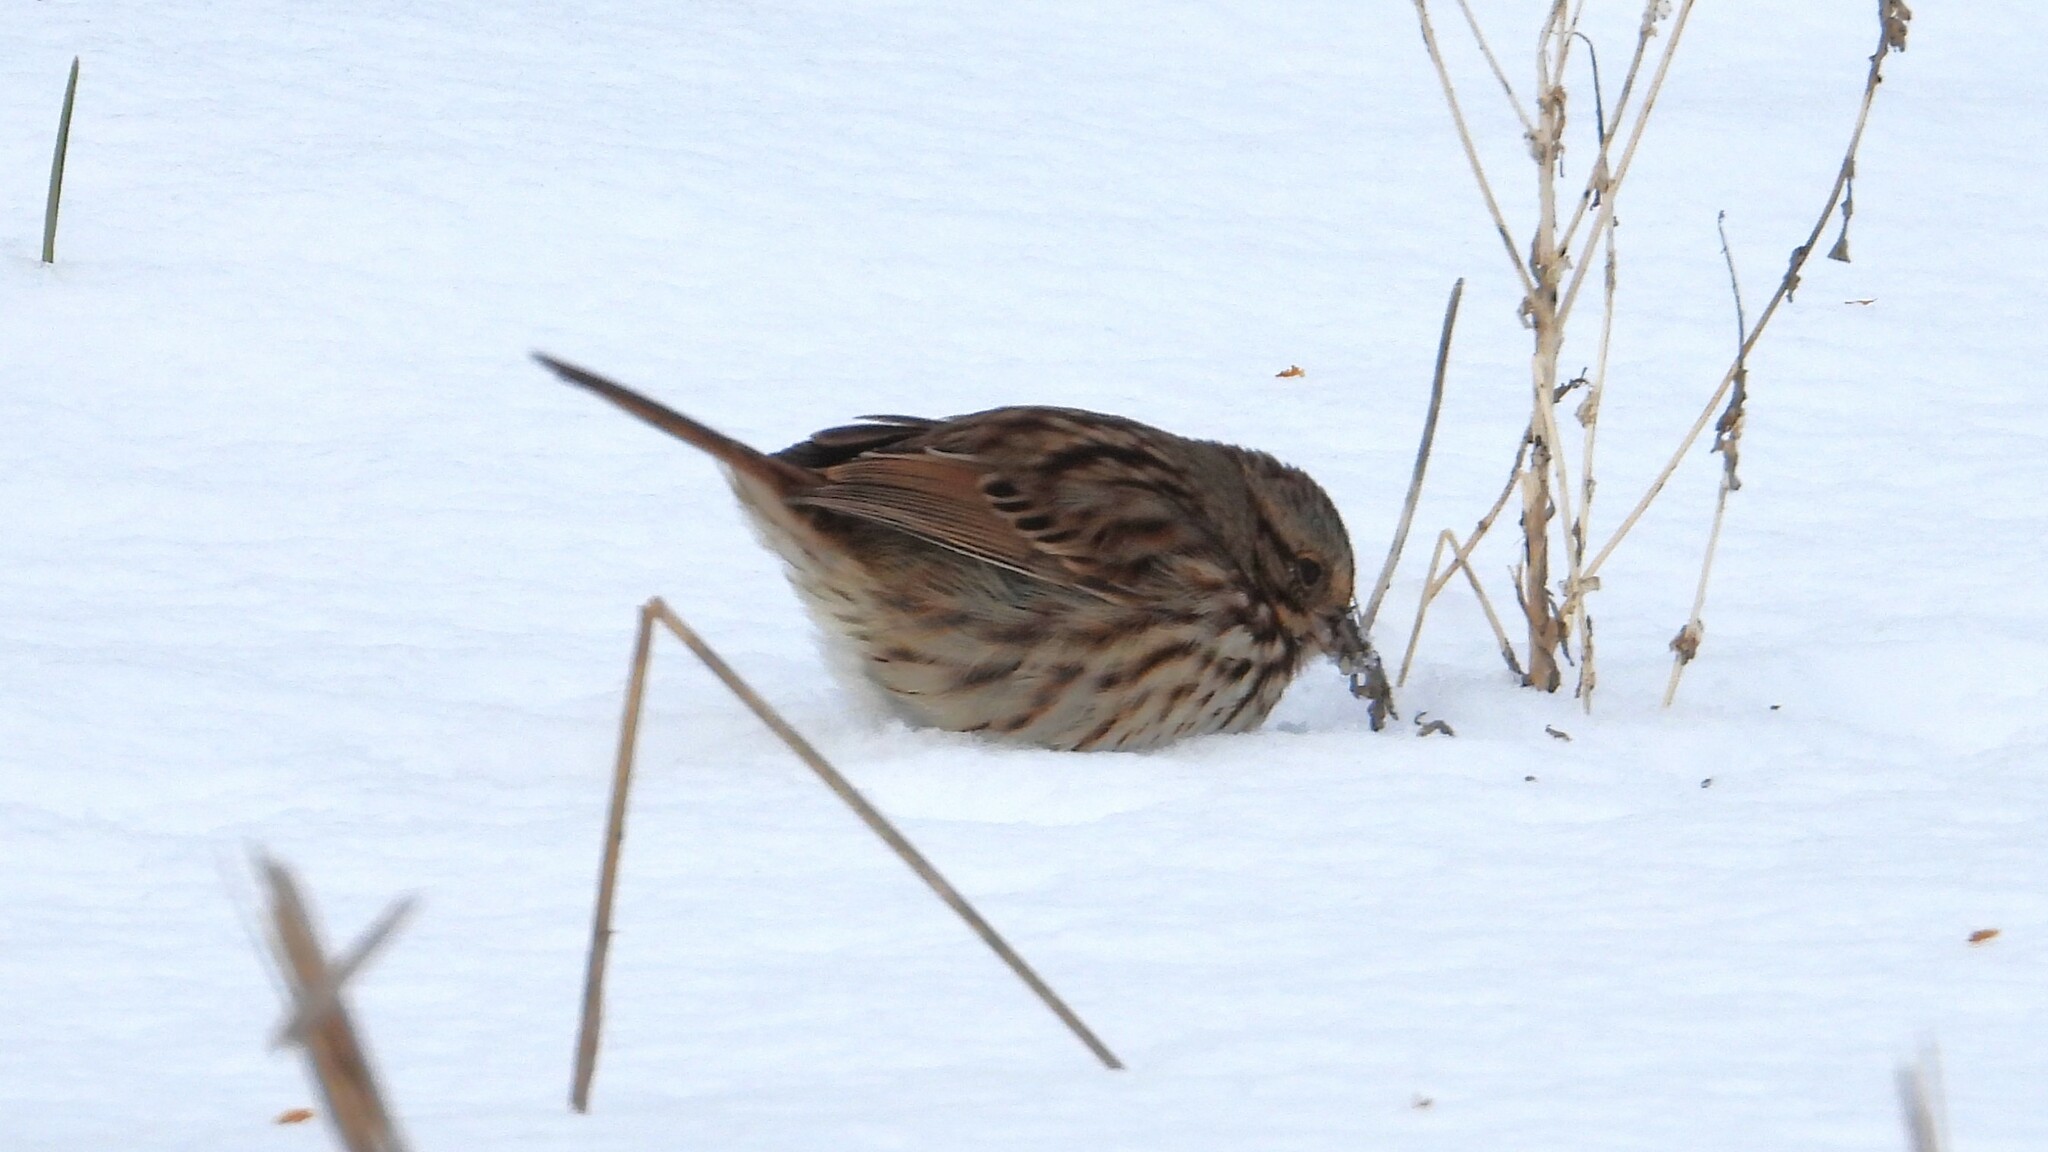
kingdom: Animalia
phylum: Chordata
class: Aves
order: Passeriformes
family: Passerellidae
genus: Melospiza
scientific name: Melospiza melodia
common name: Song sparrow
